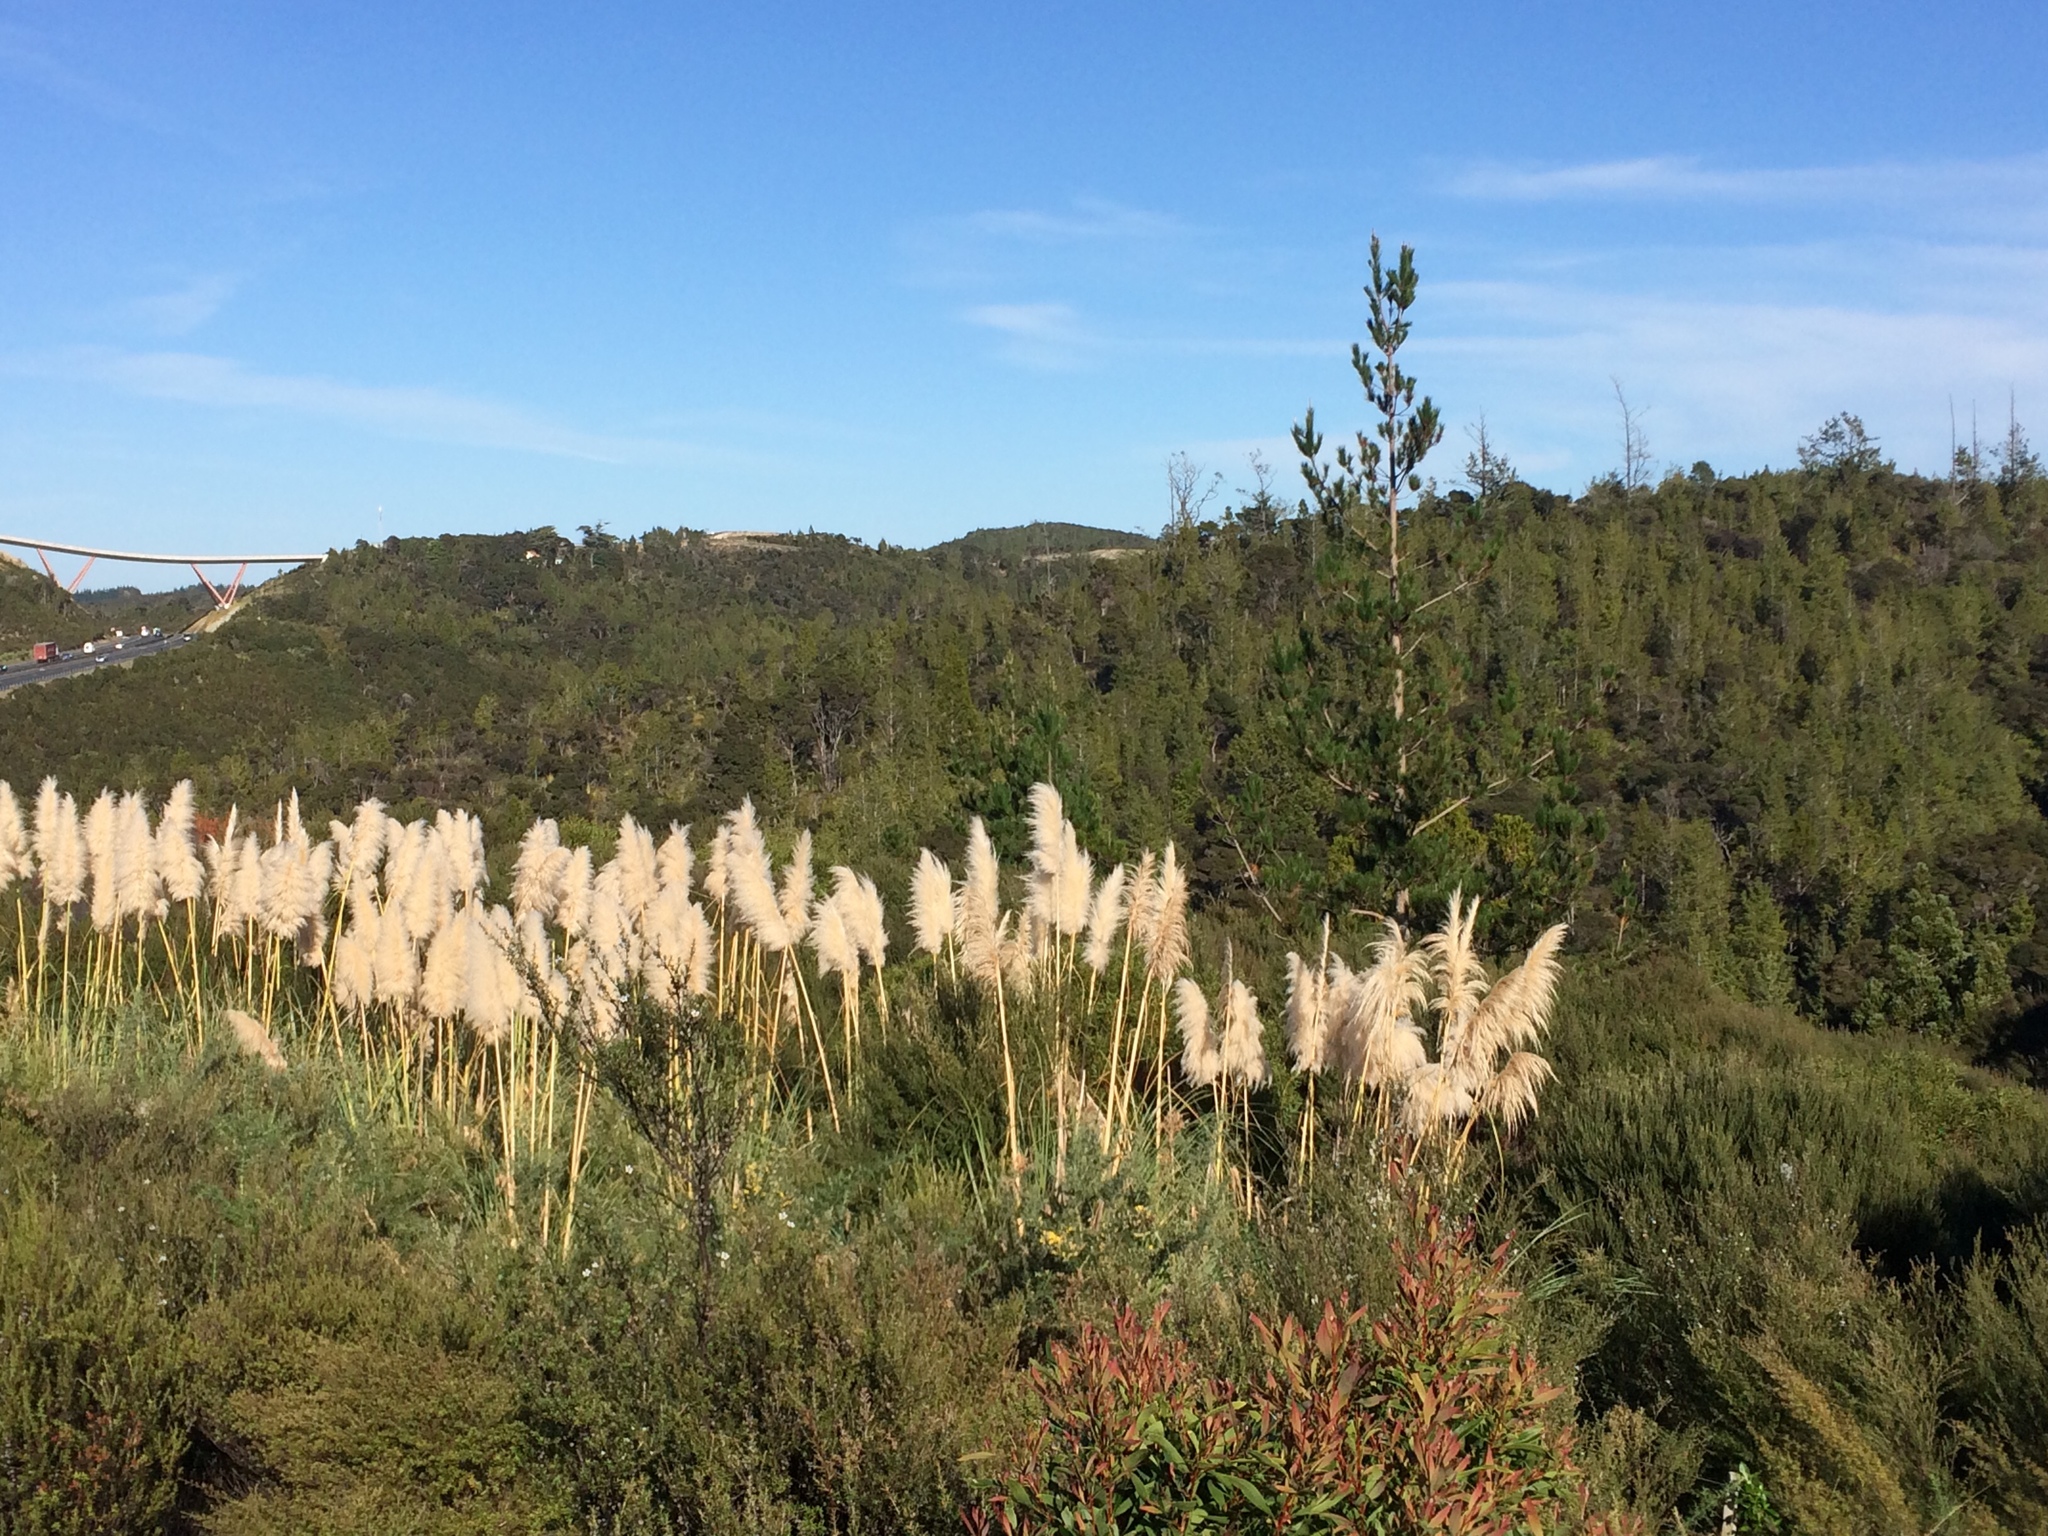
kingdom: Plantae
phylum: Tracheophyta
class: Liliopsida
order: Poales
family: Poaceae
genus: Cortaderia
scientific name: Cortaderia selloana
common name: Uruguayan pampas grass
